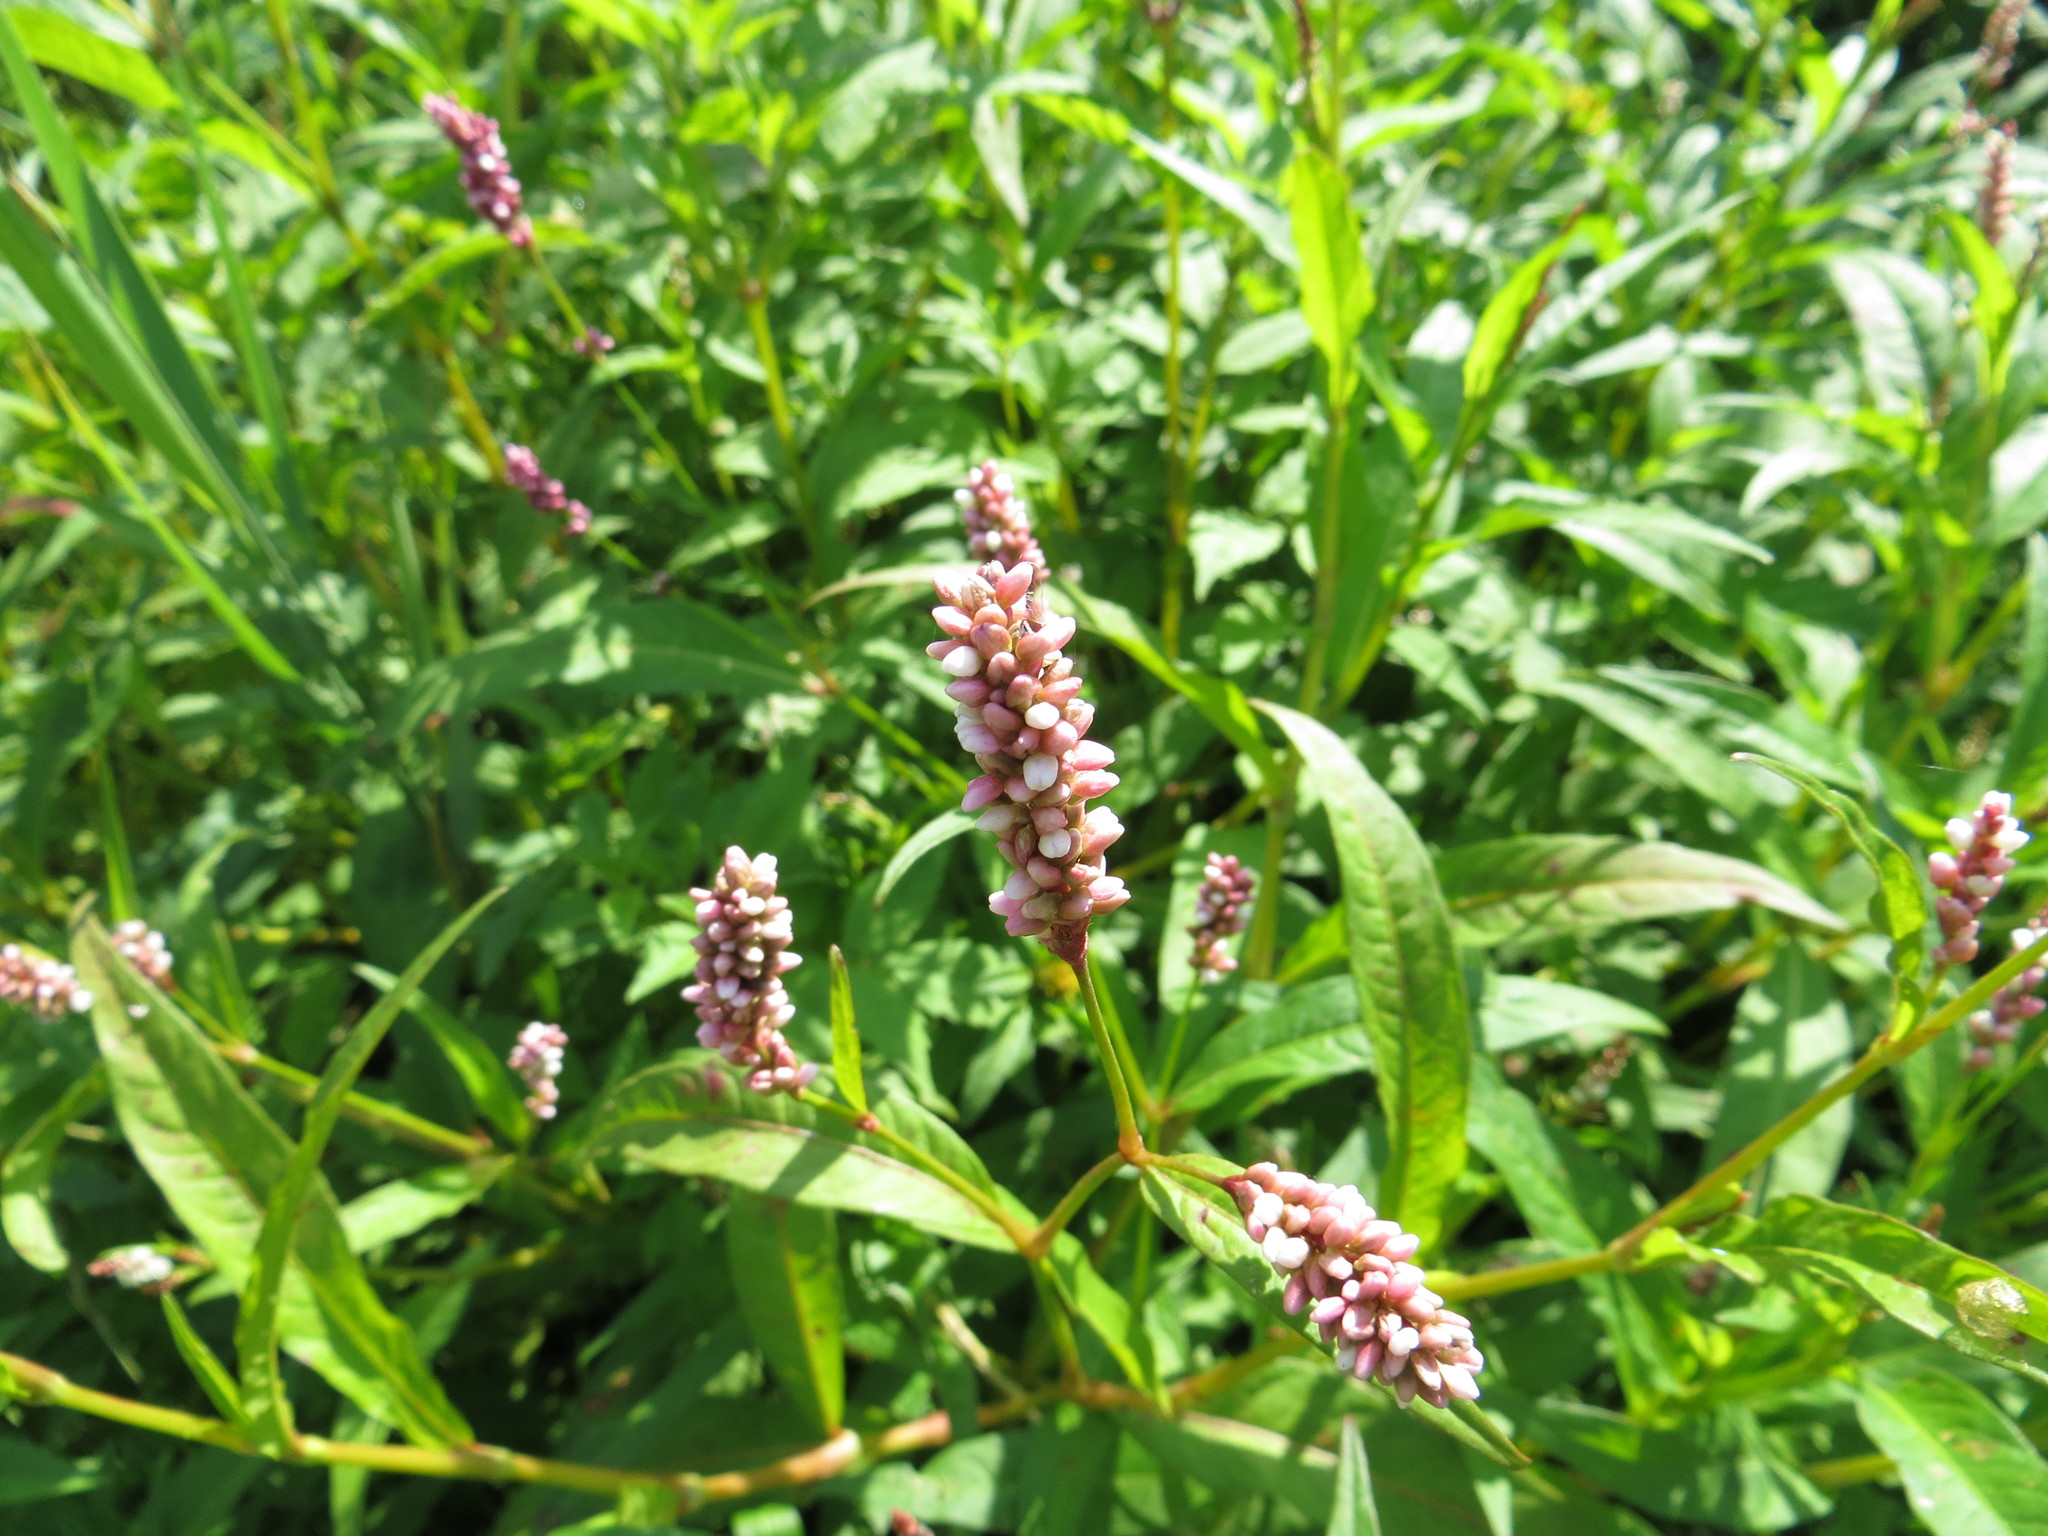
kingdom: Plantae
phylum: Tracheophyta
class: Magnoliopsida
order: Caryophyllales
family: Polygonaceae
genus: Persicaria
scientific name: Persicaria lapathifolia
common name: Curlytop knotweed
